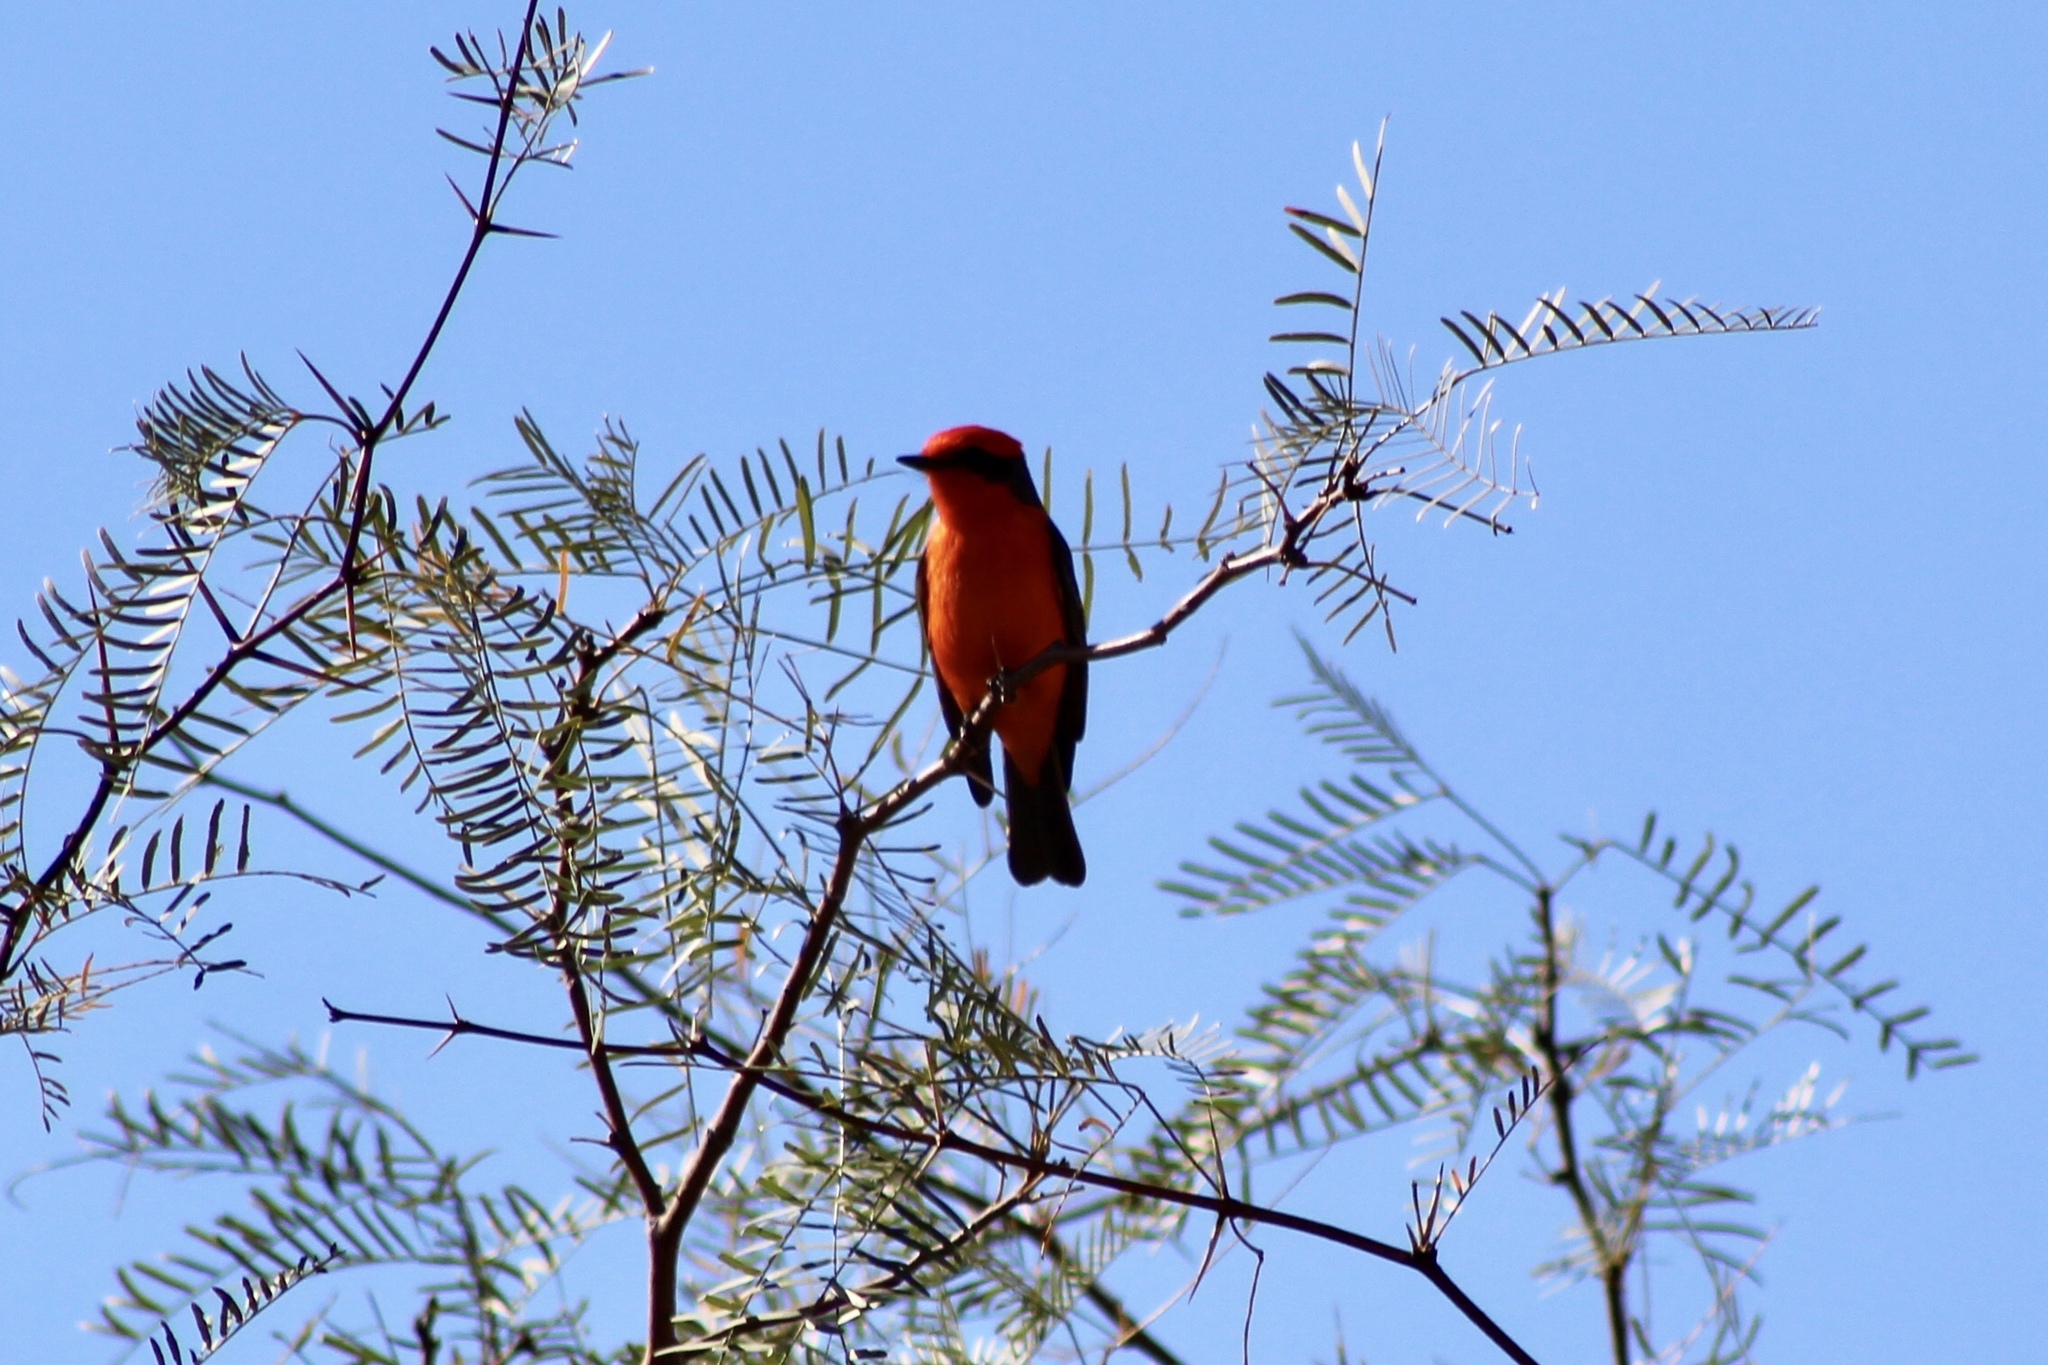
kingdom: Animalia
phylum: Chordata
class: Aves
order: Passeriformes
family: Tyrannidae
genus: Pyrocephalus
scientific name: Pyrocephalus rubinus
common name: Vermilion flycatcher
